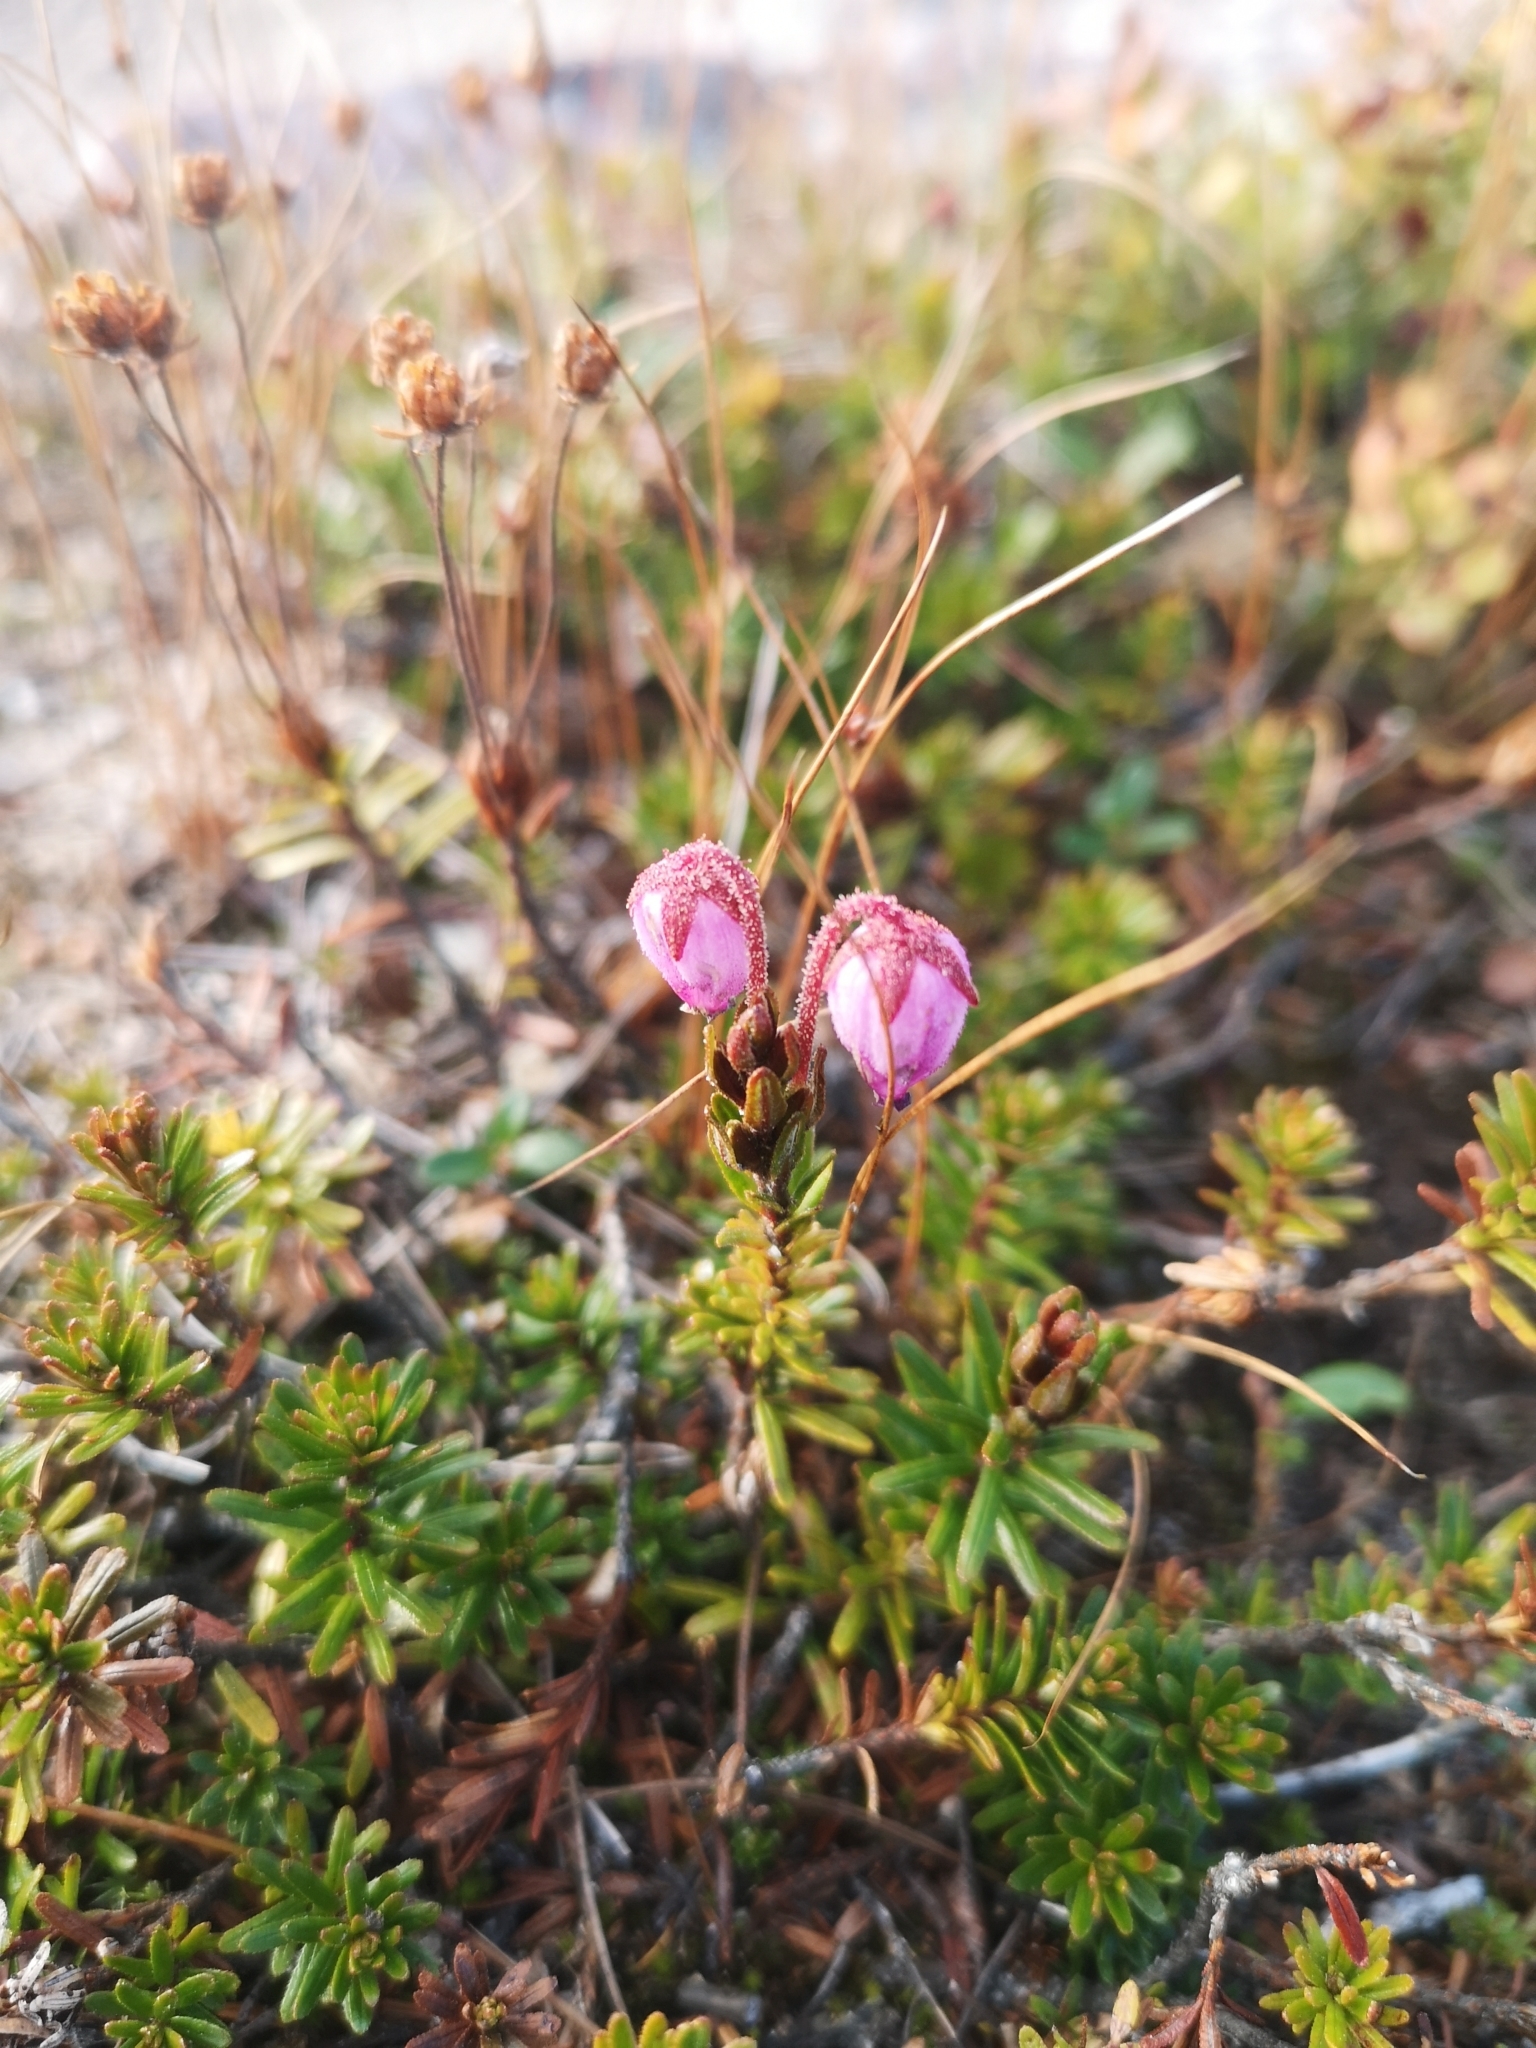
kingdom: Plantae
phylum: Tracheophyta
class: Magnoliopsida
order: Ericales
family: Ericaceae
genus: Phyllodoce
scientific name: Phyllodoce caerulea
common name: Blue heath
